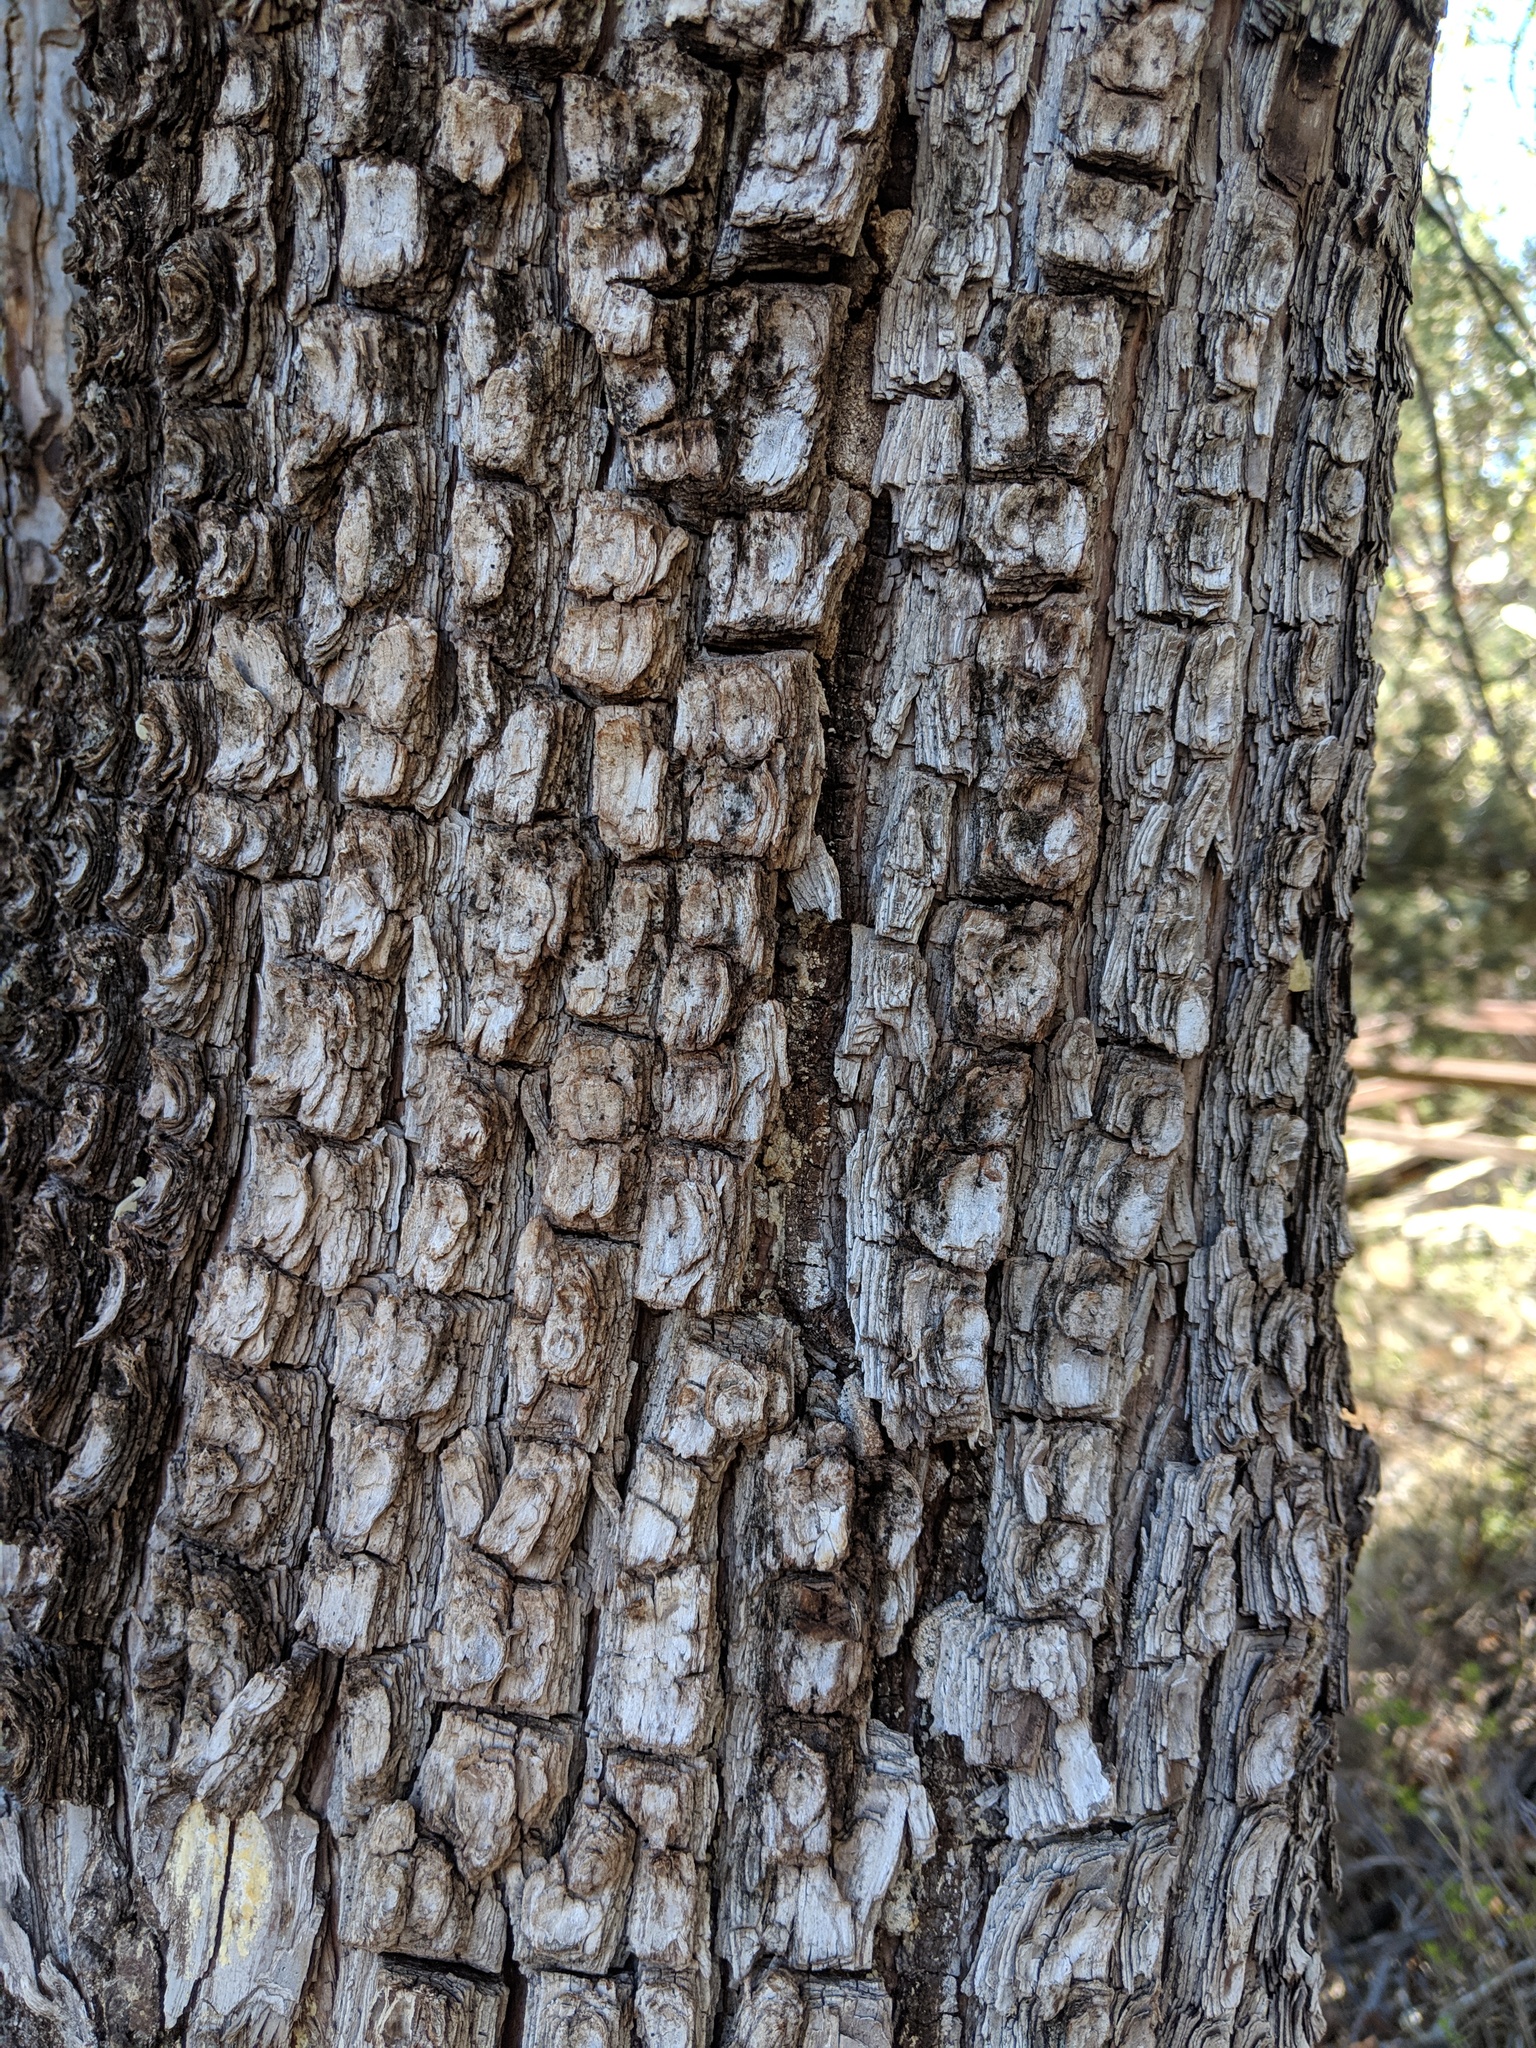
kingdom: Plantae
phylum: Tracheophyta
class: Pinopsida
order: Pinales
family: Cupressaceae
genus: Juniperus
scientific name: Juniperus deppeana
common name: Alligator juniper
